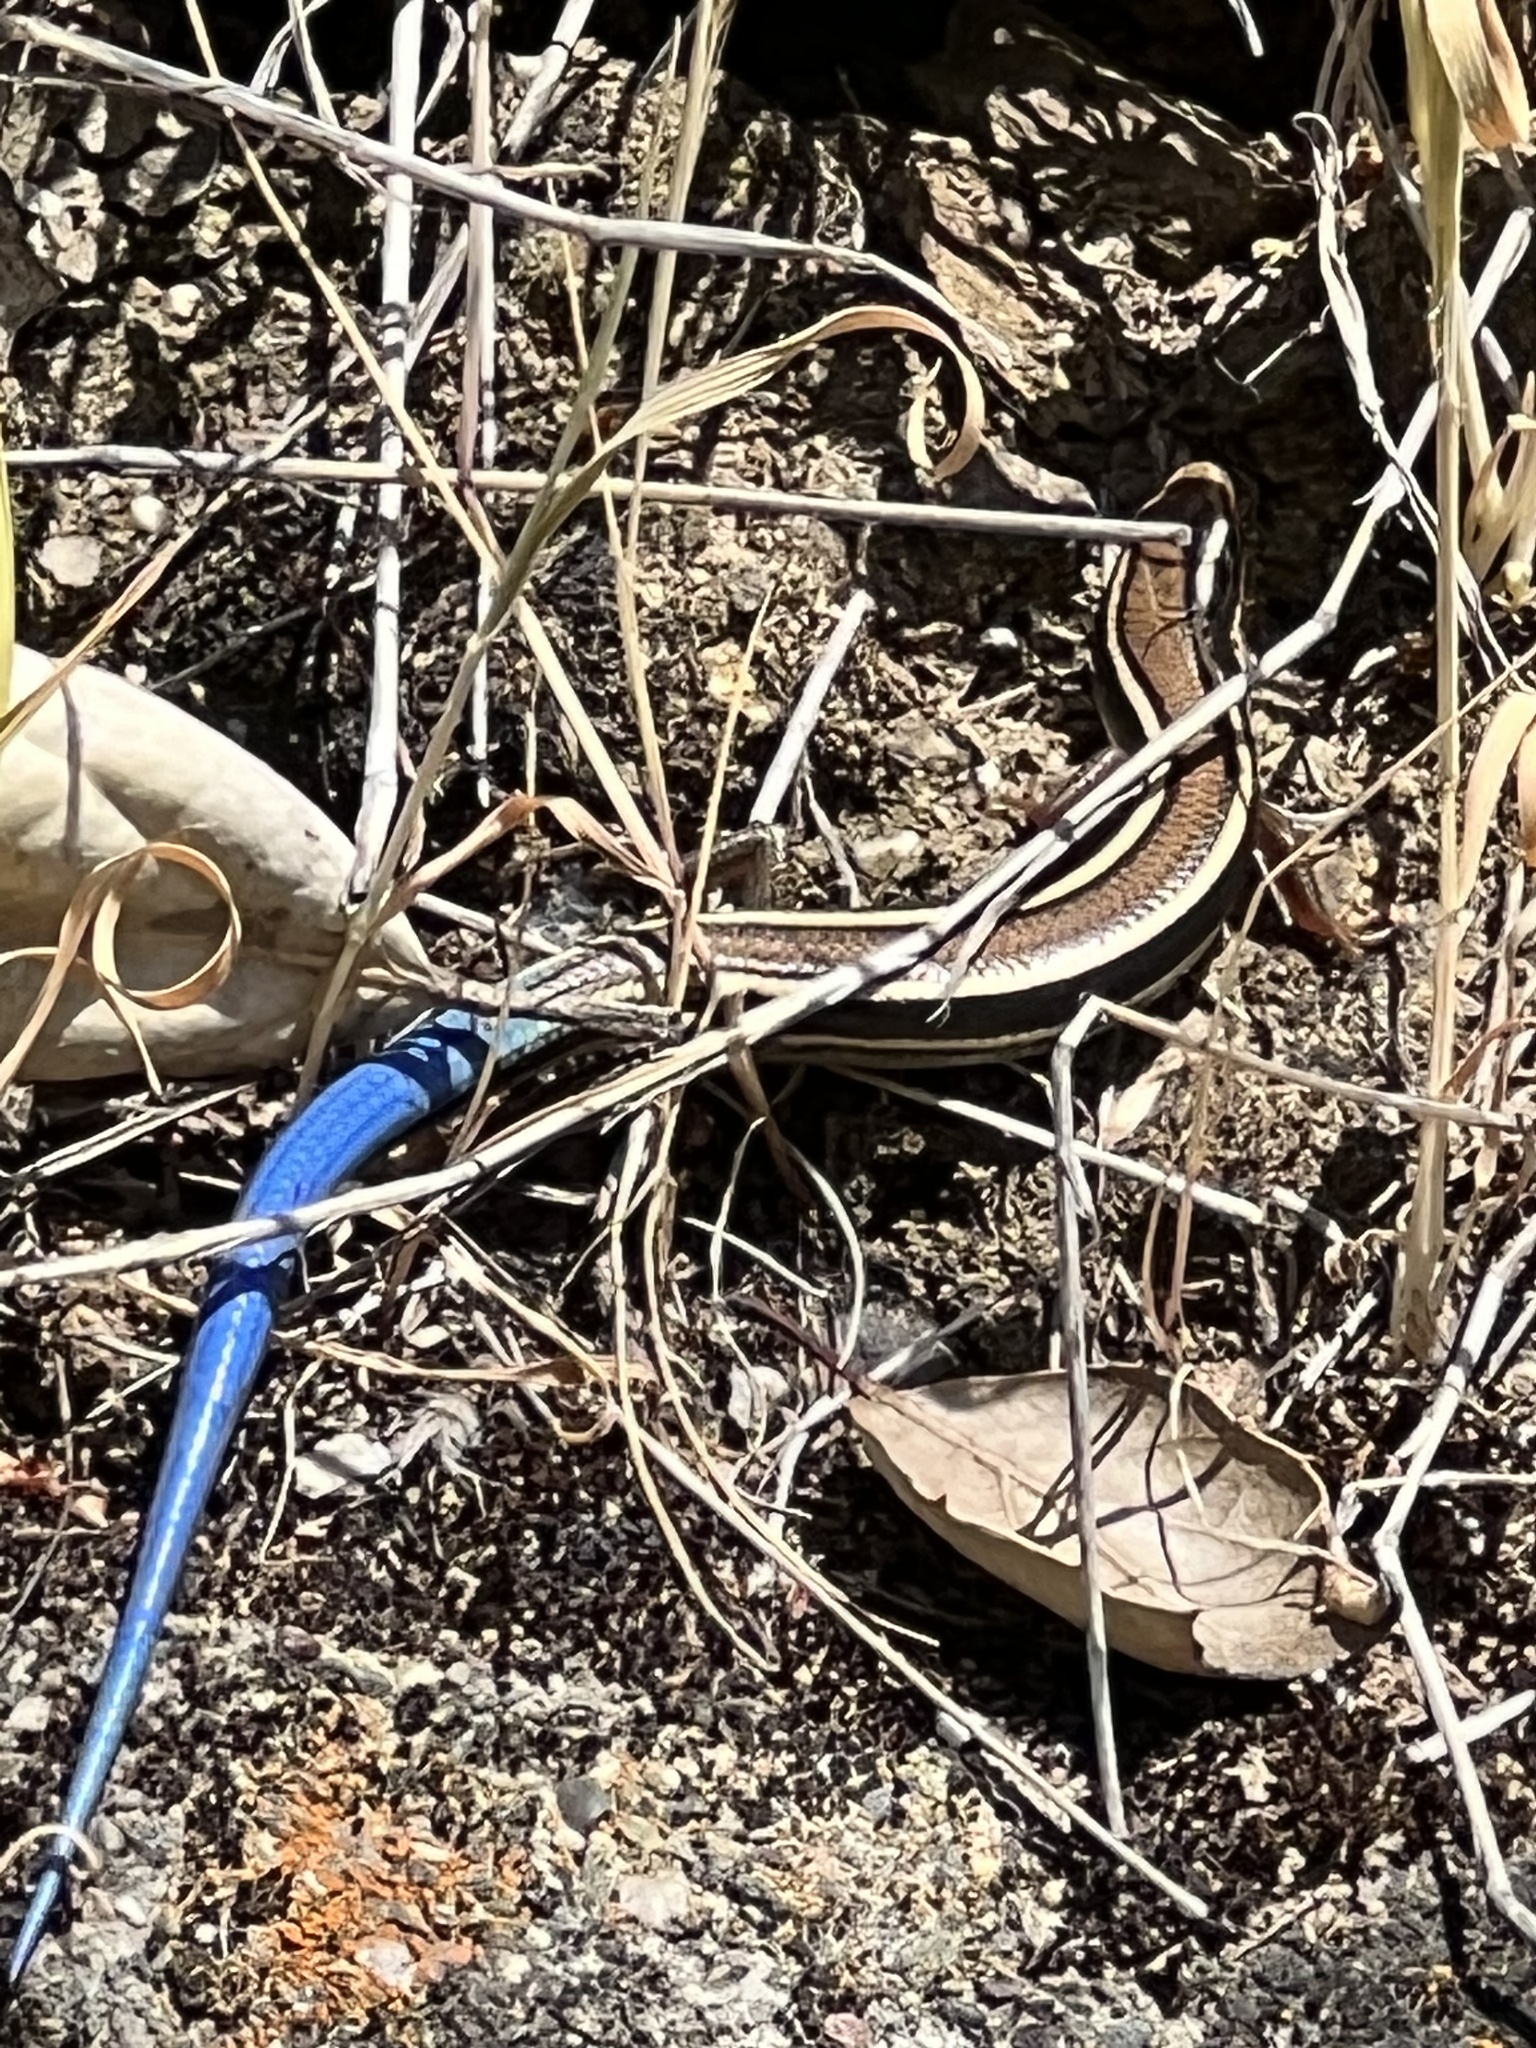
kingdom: Animalia
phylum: Chordata
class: Squamata
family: Scincidae
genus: Plestiodon
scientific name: Plestiodon skiltonianus
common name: Coronado island skink [interparietalis]
